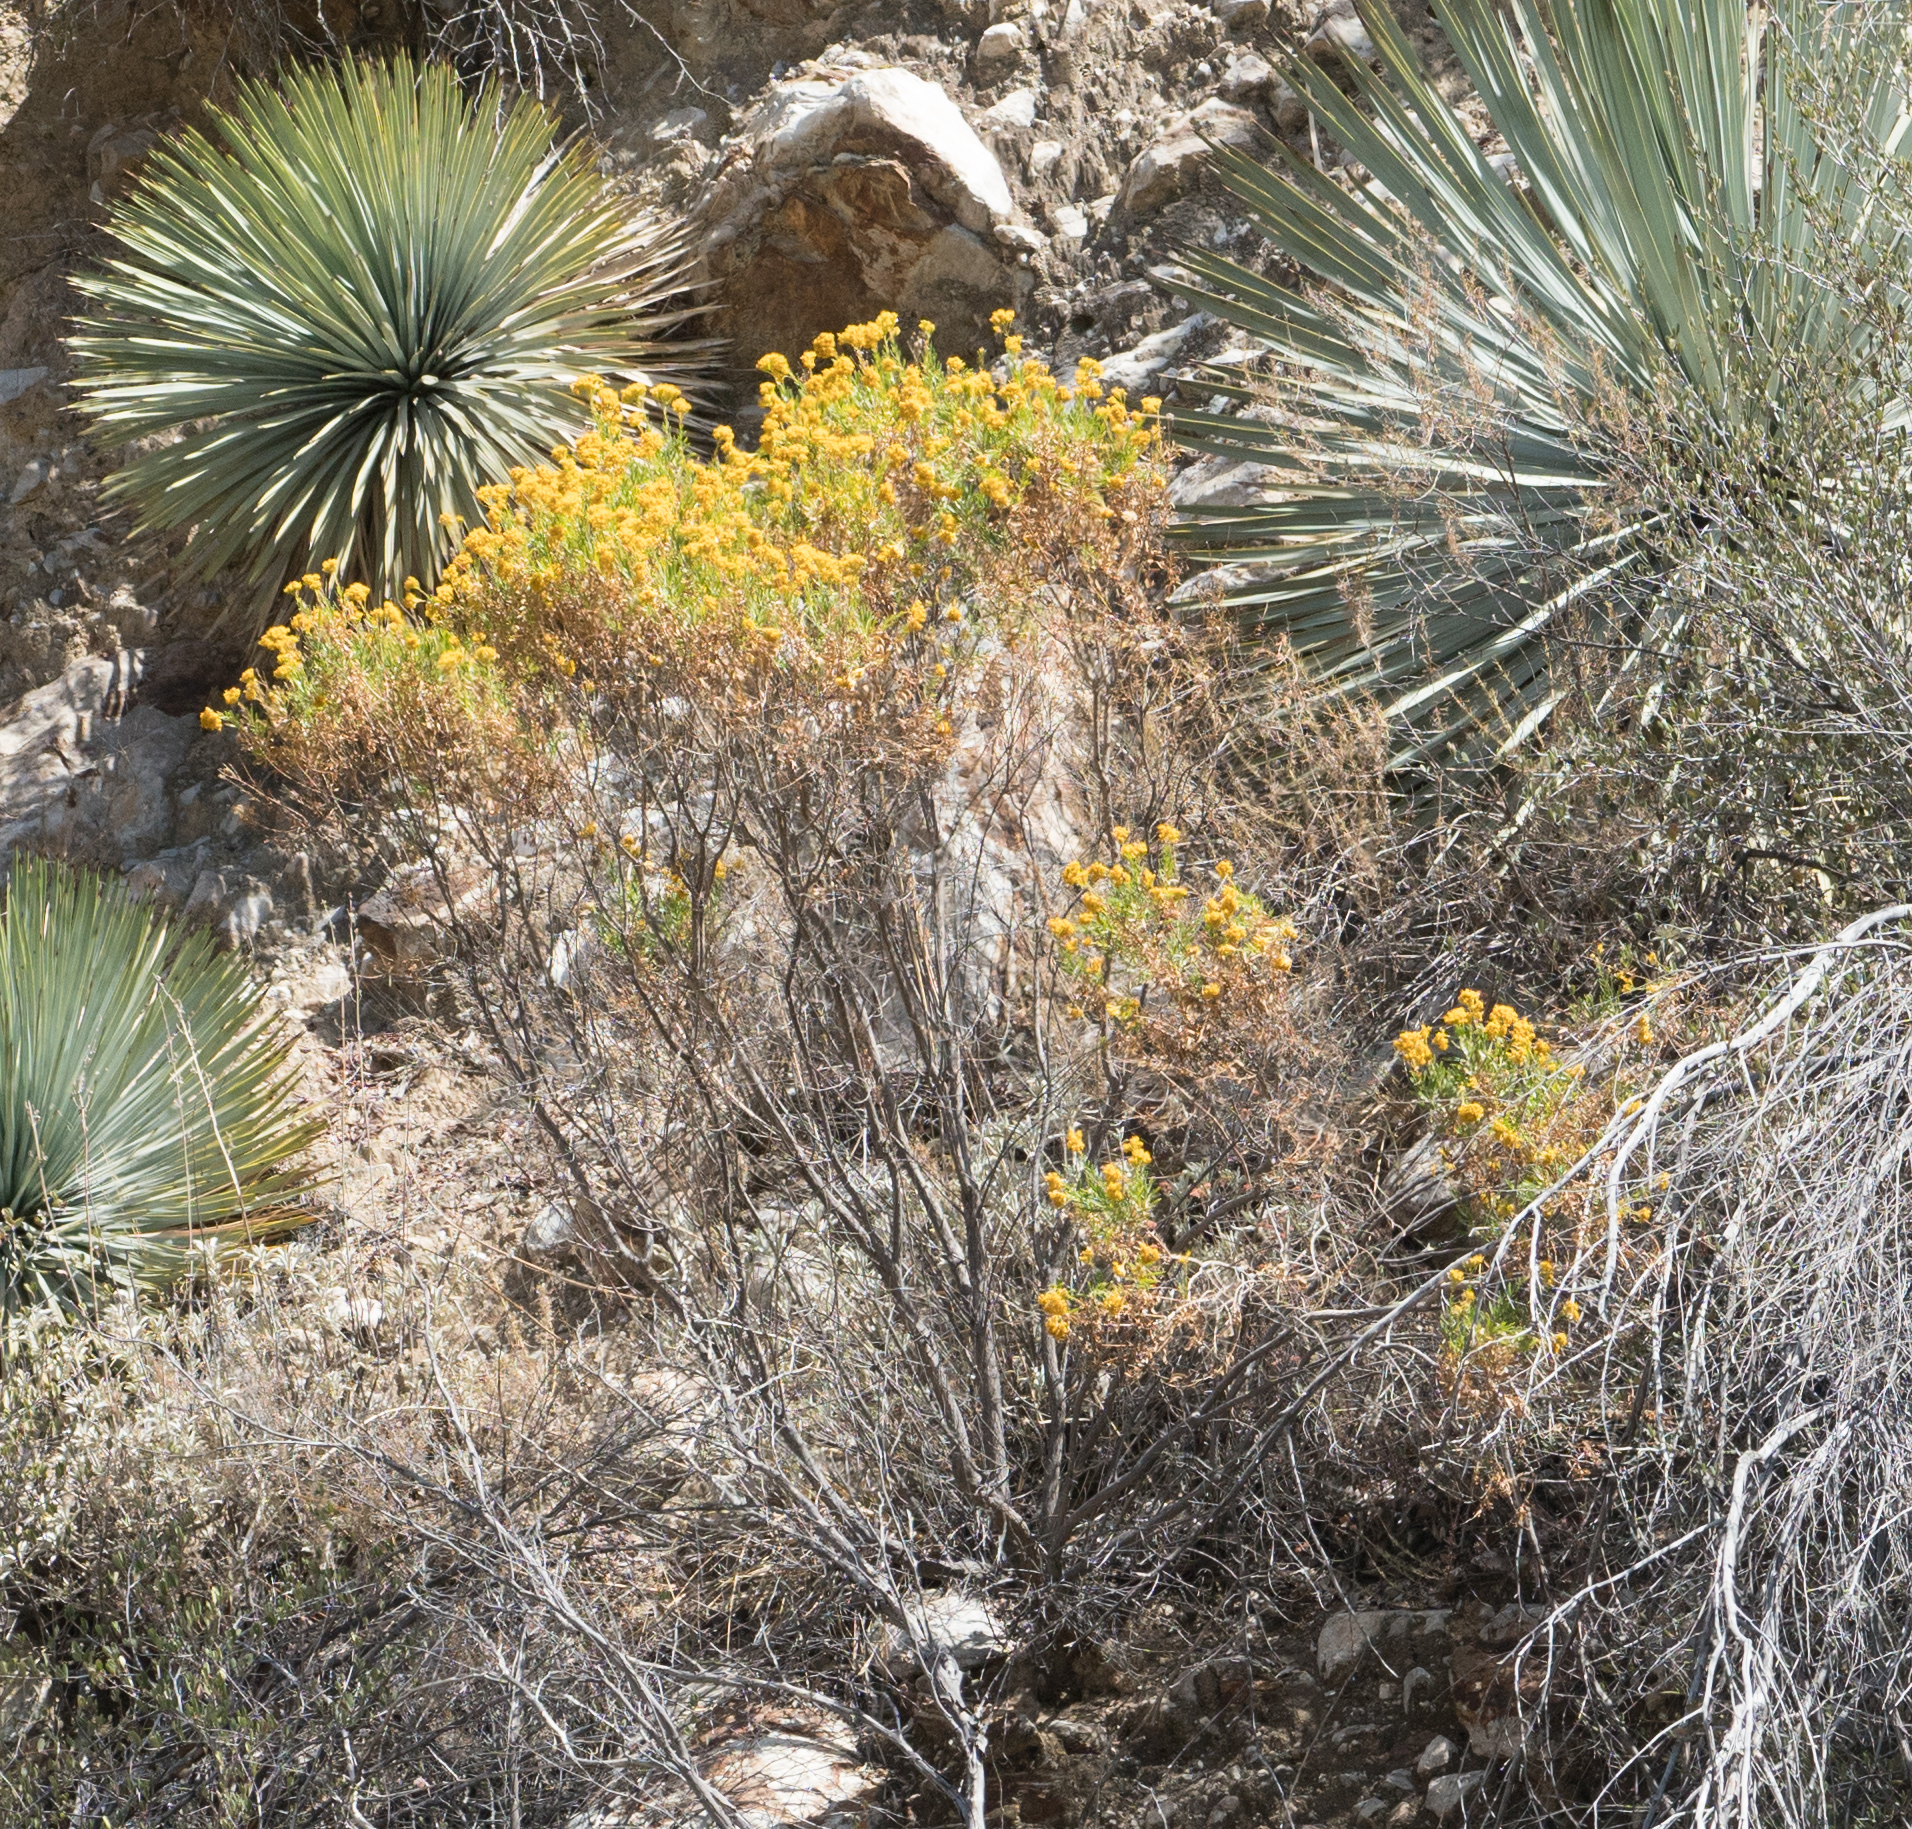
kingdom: Plantae
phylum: Tracheophyta
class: Magnoliopsida
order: Asterales
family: Asteraceae
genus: Ericameria
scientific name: Ericameria parishii
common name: Parish's goldenbush
